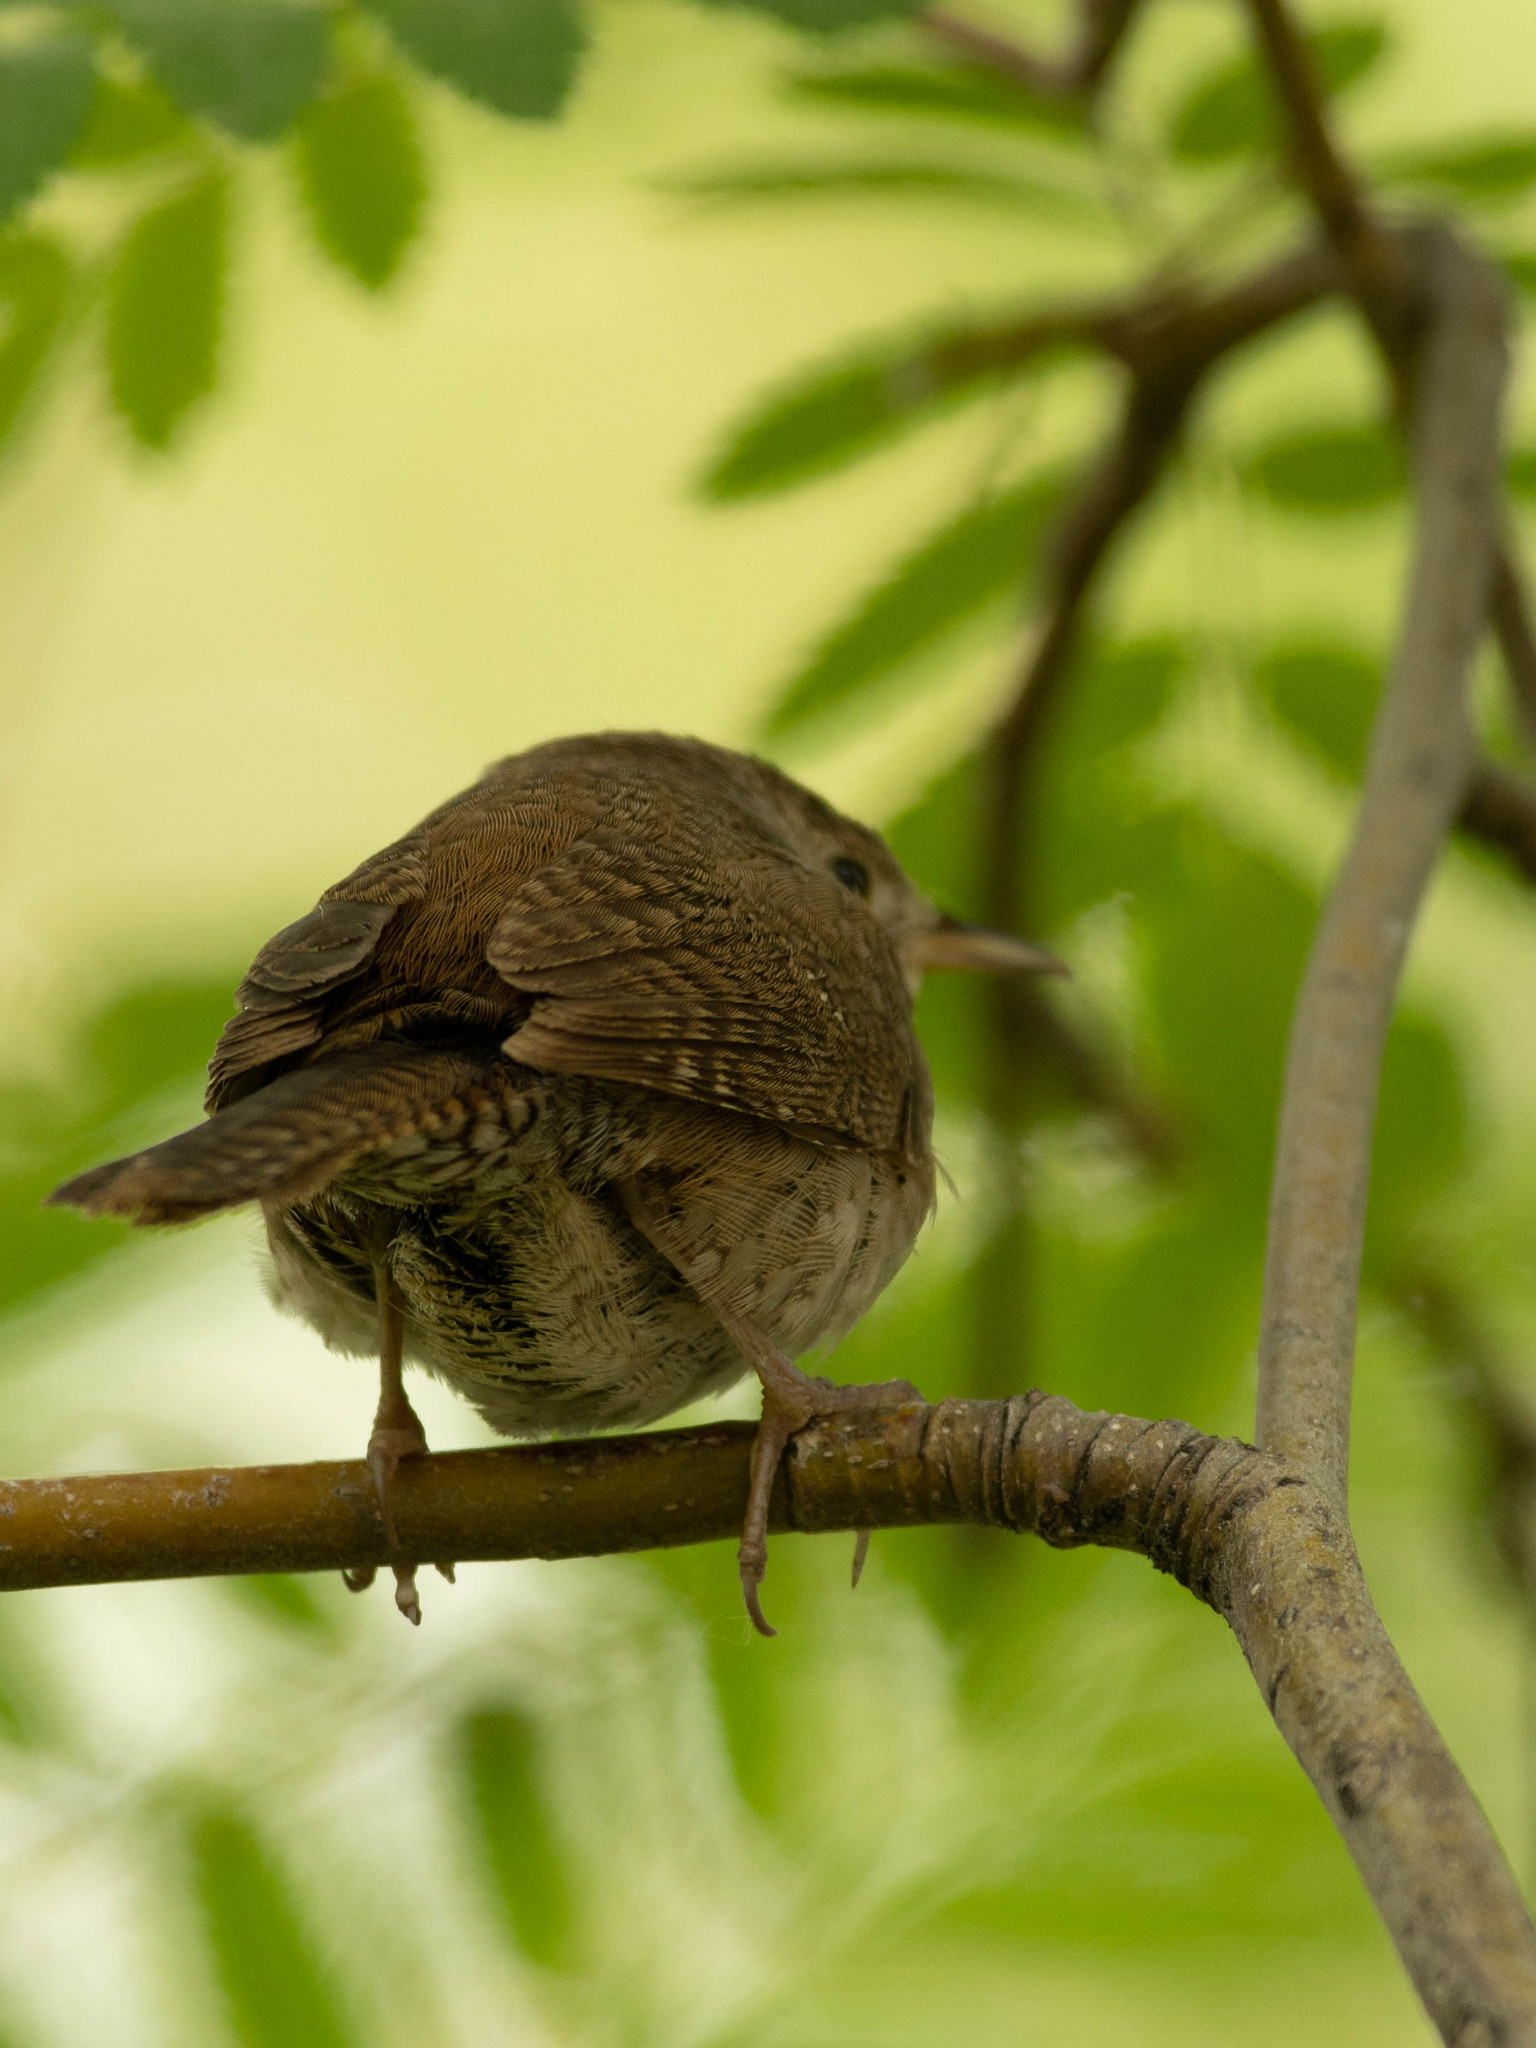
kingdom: Animalia
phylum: Chordata
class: Aves
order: Passeriformes
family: Troglodytidae
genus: Troglodytes
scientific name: Troglodytes aedon
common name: House wren
